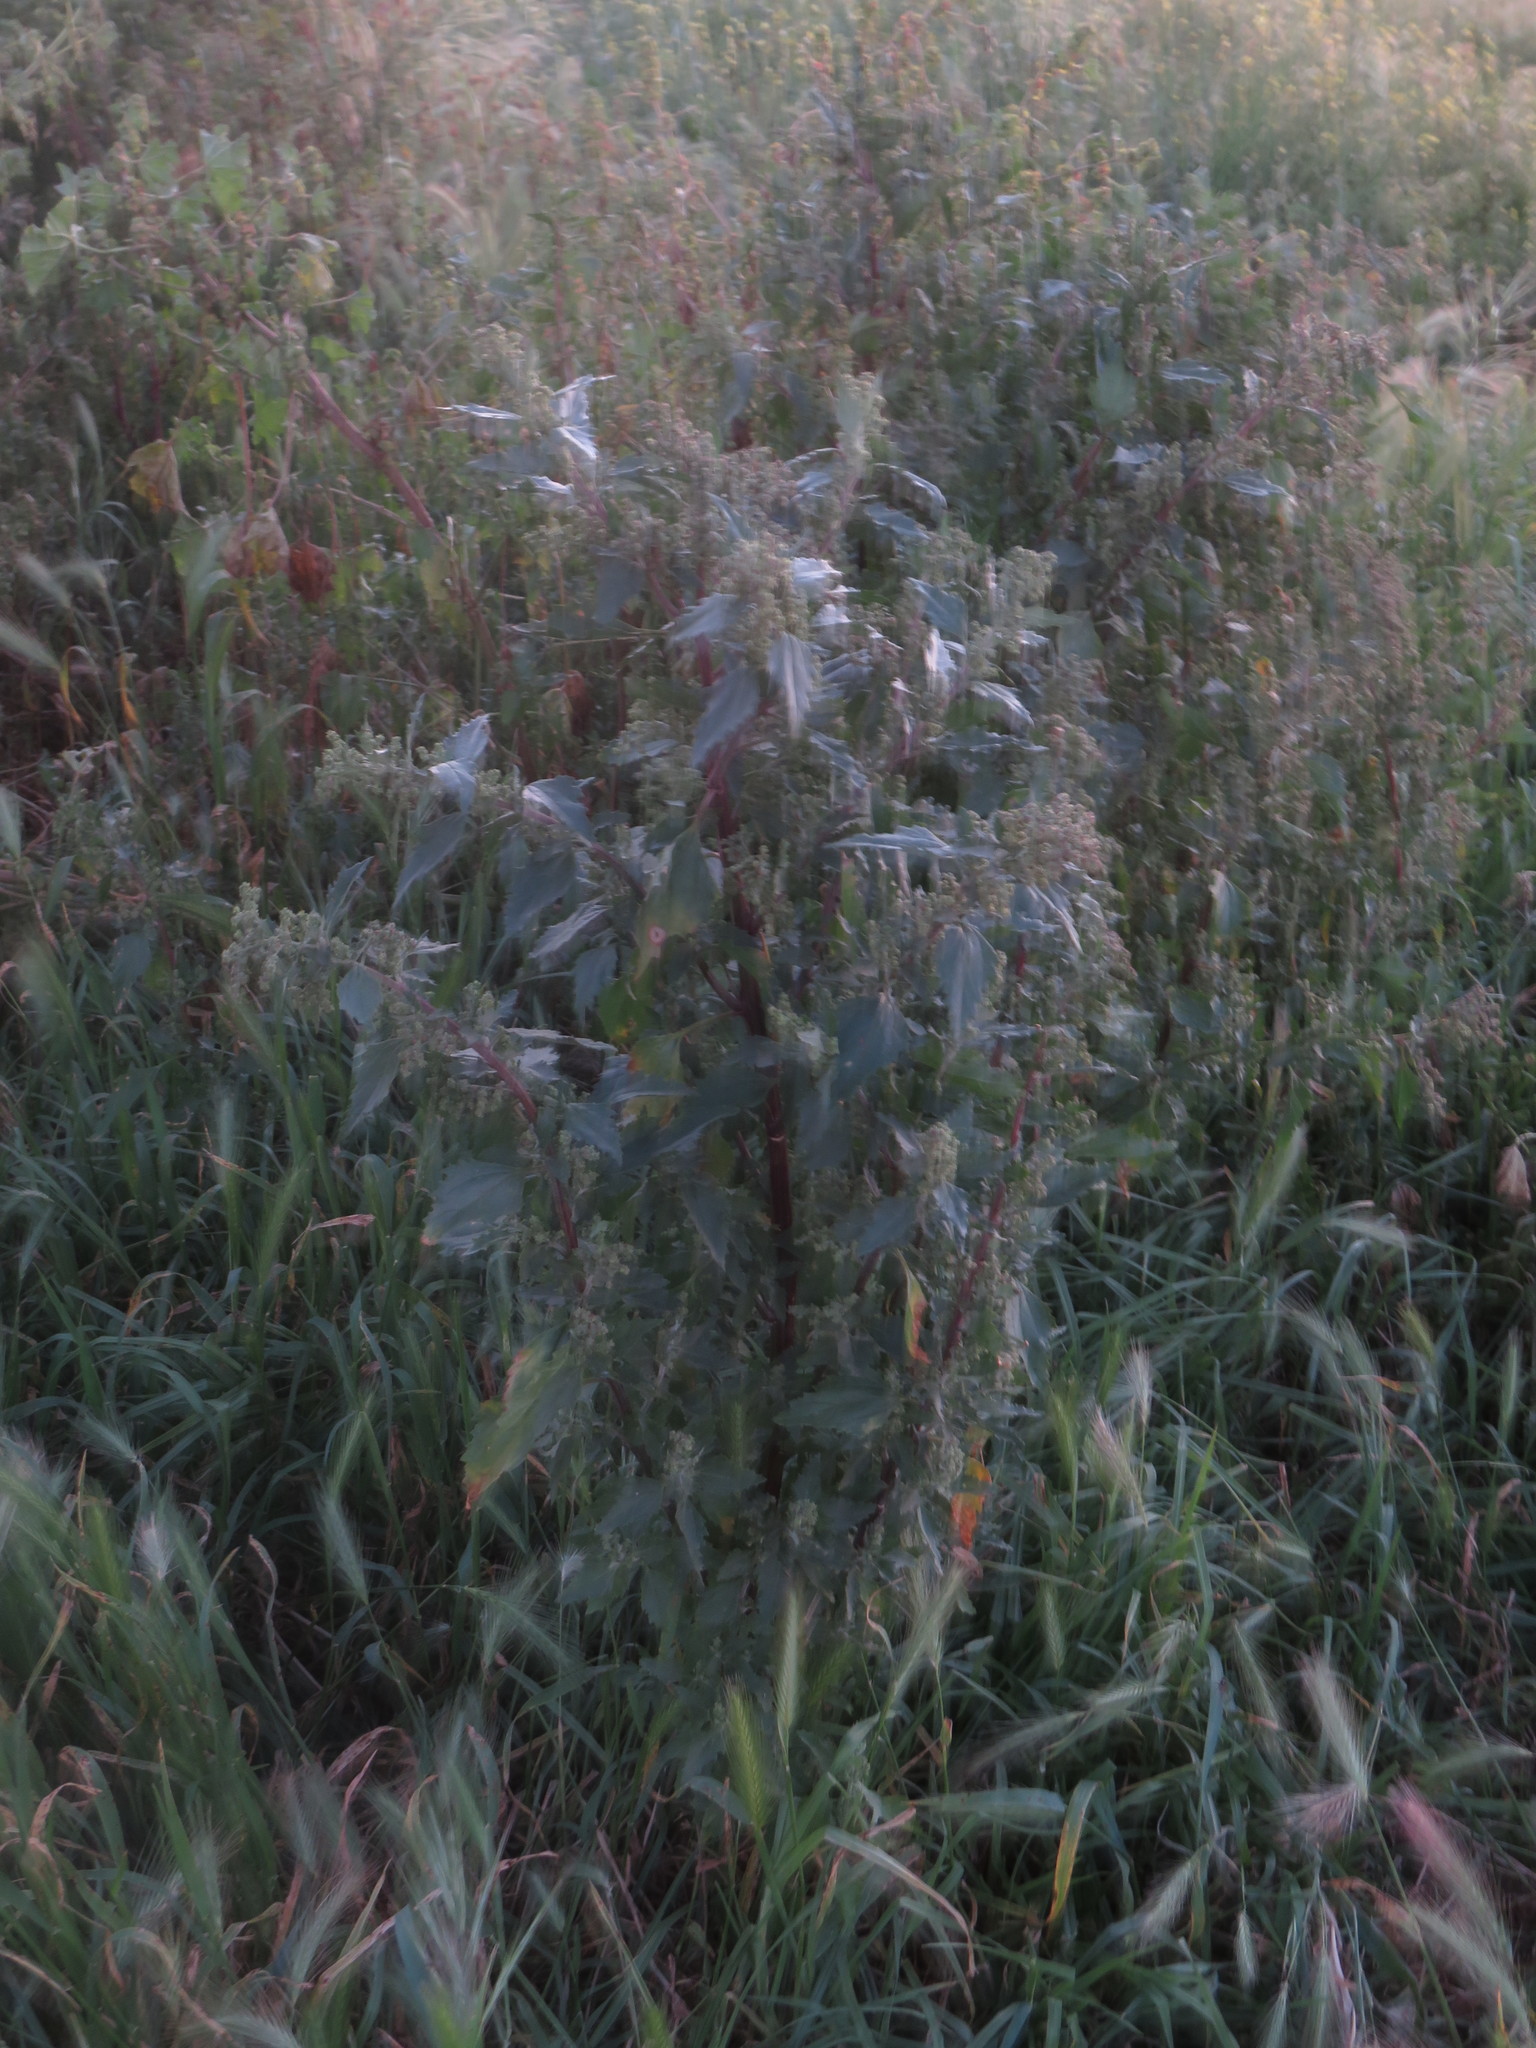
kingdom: Plantae
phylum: Tracheophyta
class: Magnoliopsida
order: Caryophyllales
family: Amaranthaceae
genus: Chenopodiastrum
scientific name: Chenopodiastrum murale
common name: Sowbane
